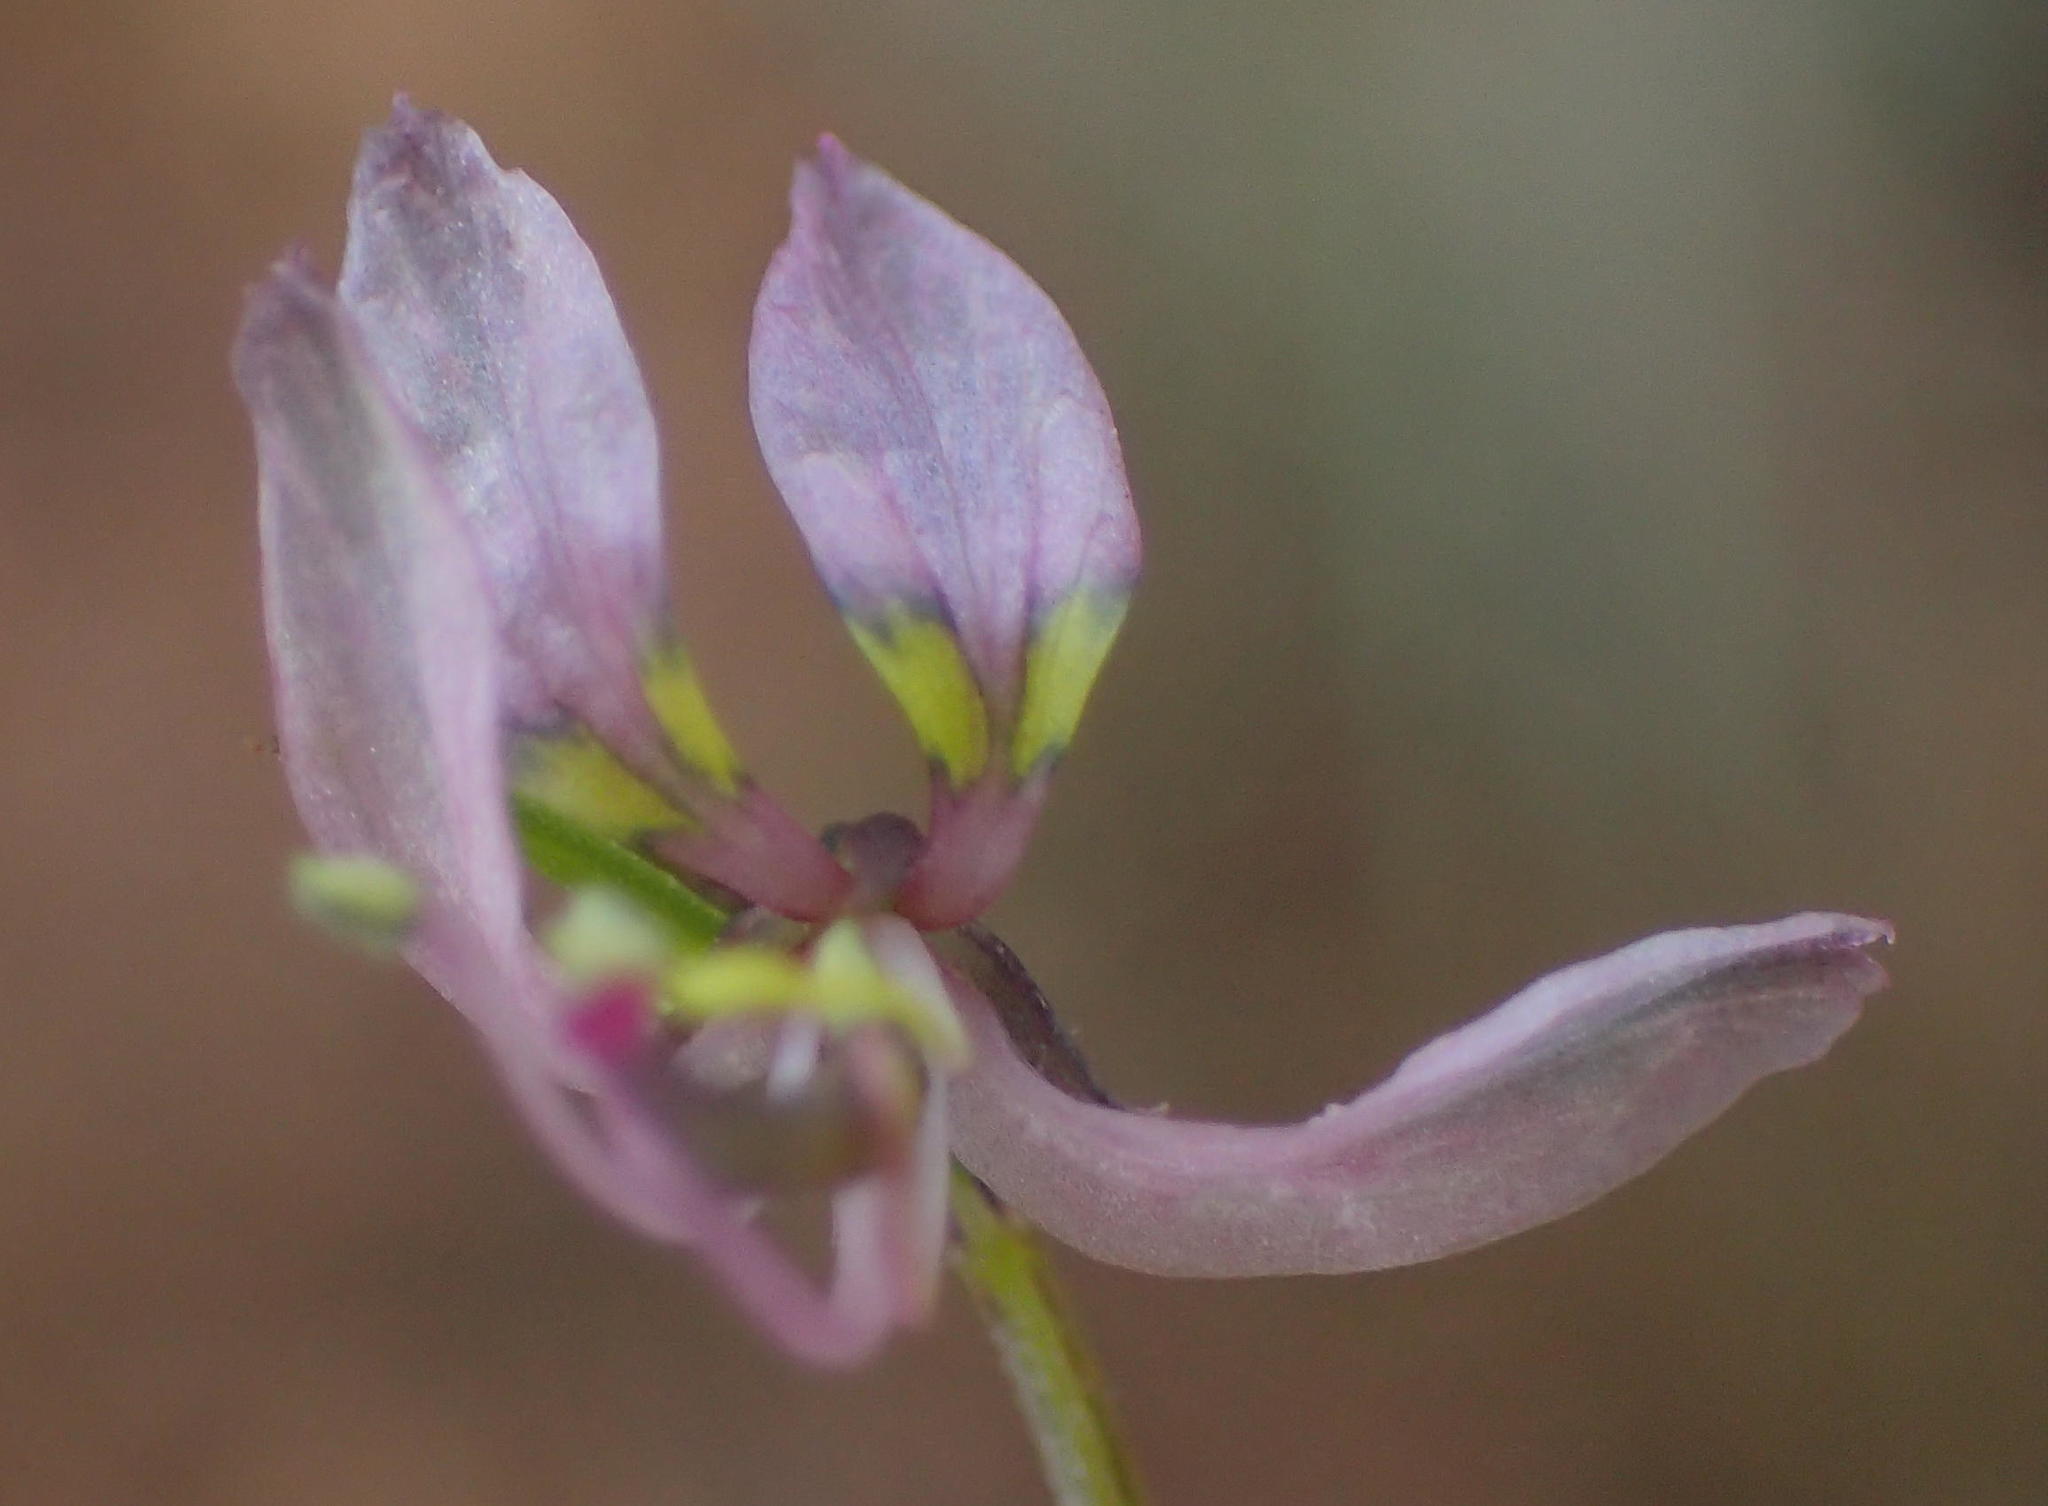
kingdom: Plantae
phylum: Tracheophyta
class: Magnoliopsida
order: Brassicales
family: Cleomaceae
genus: Sieruela
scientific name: Sieruela conrathii
